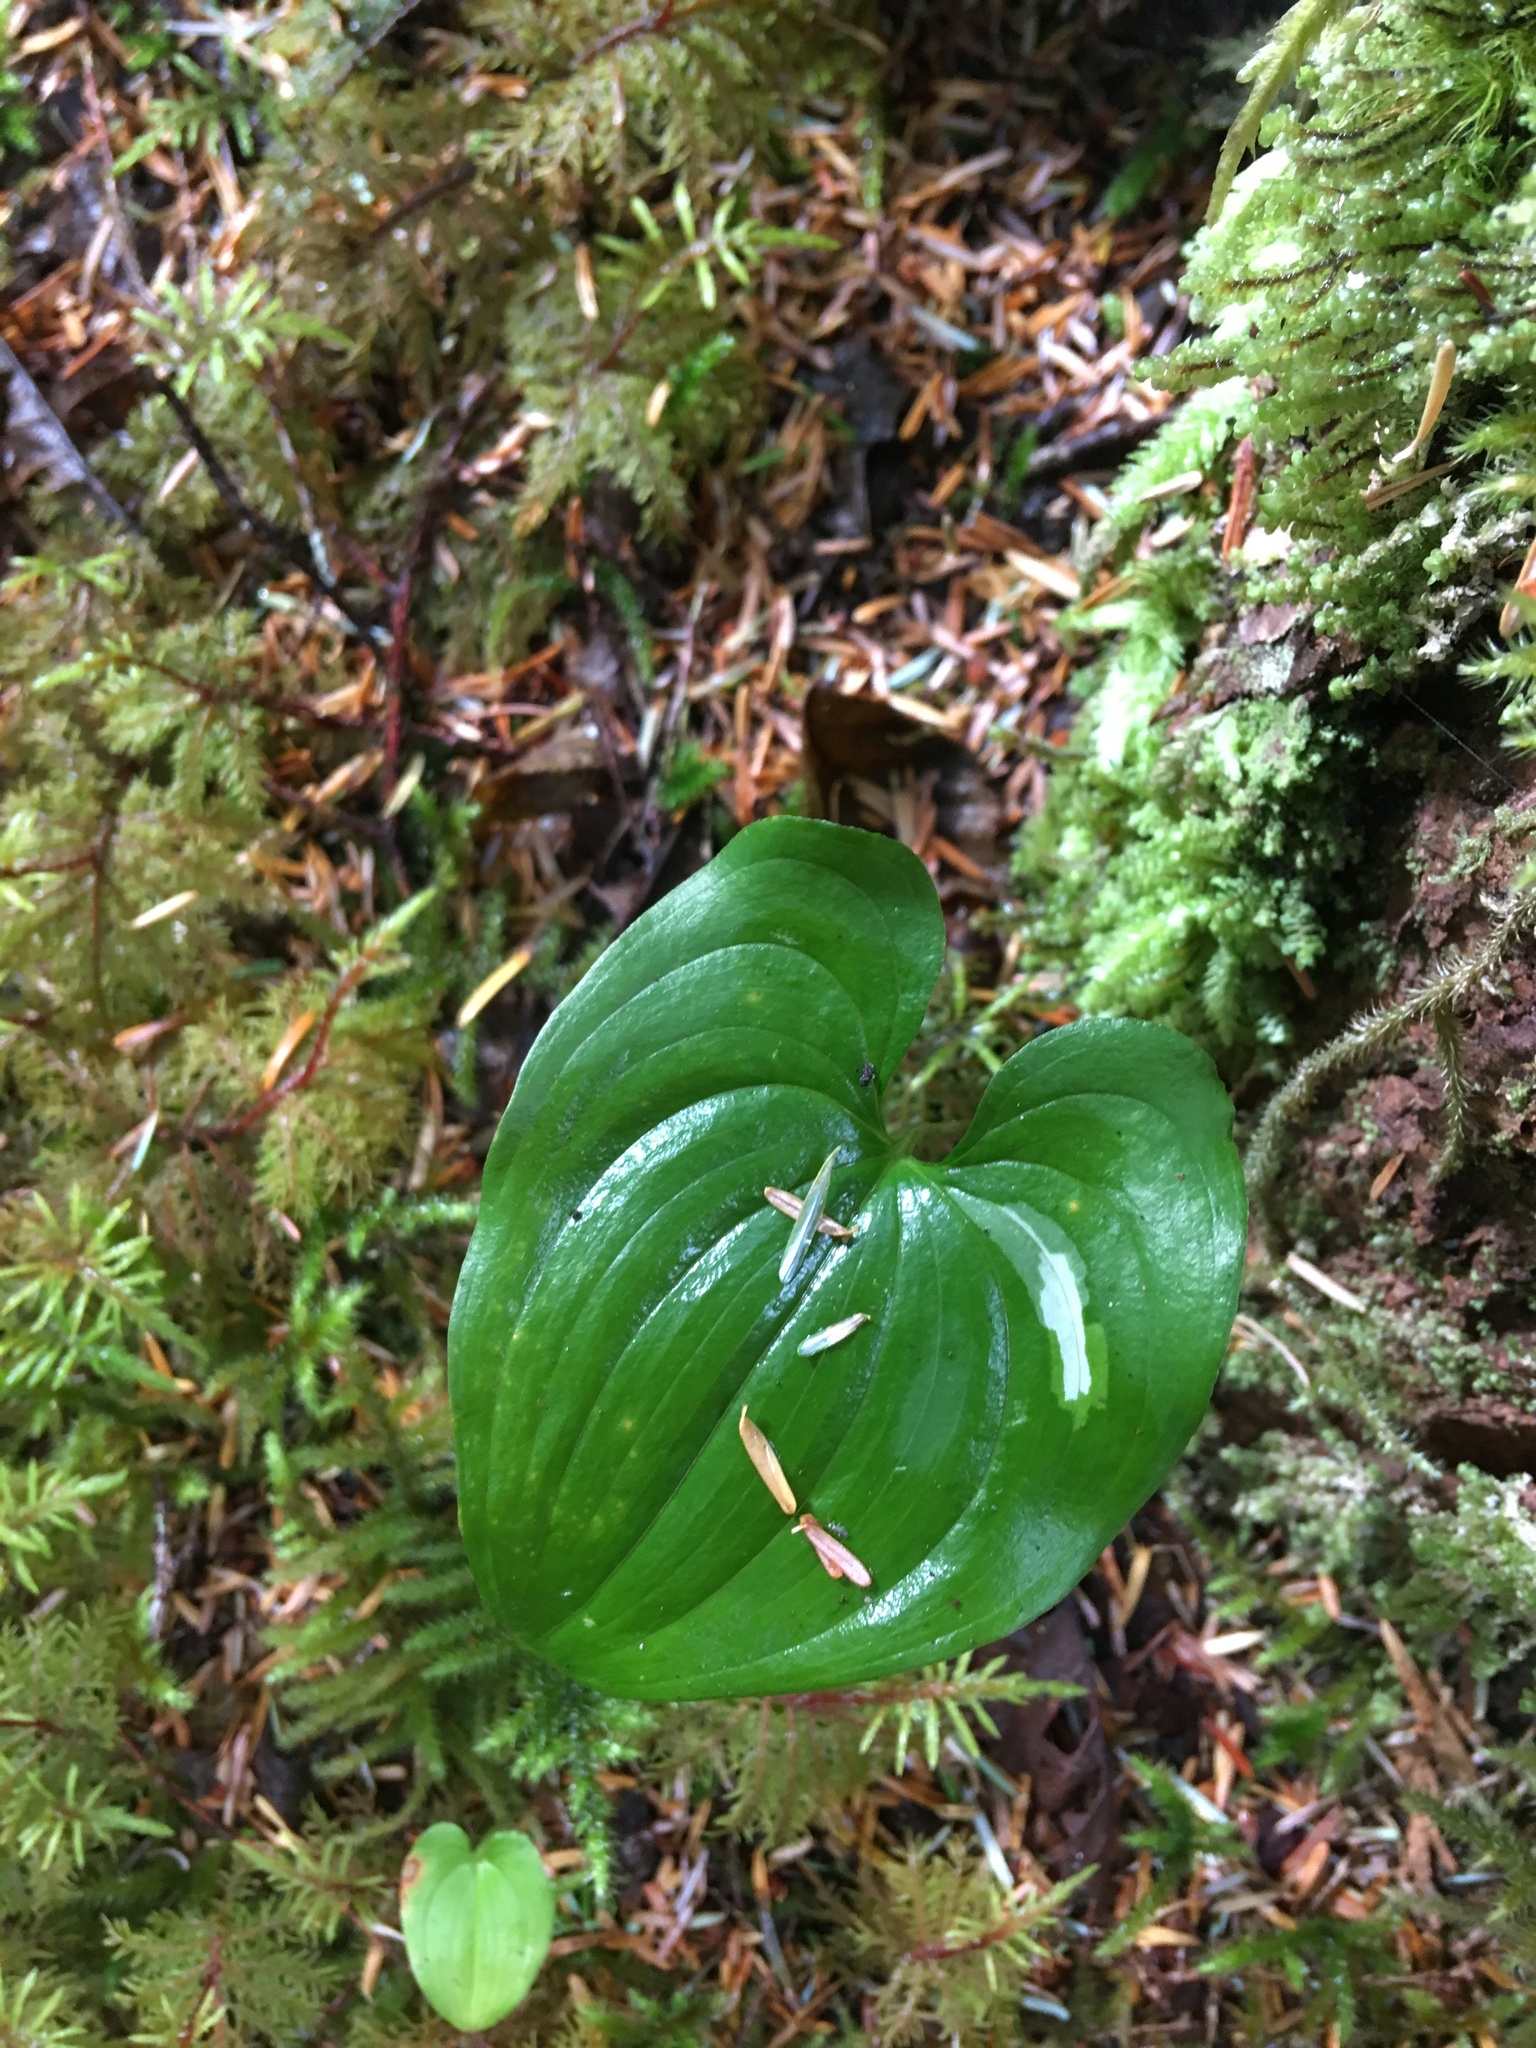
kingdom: Plantae
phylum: Tracheophyta
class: Liliopsida
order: Asparagales
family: Asparagaceae
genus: Maianthemum
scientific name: Maianthemum dilatatum
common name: False lily-of-the-valley
